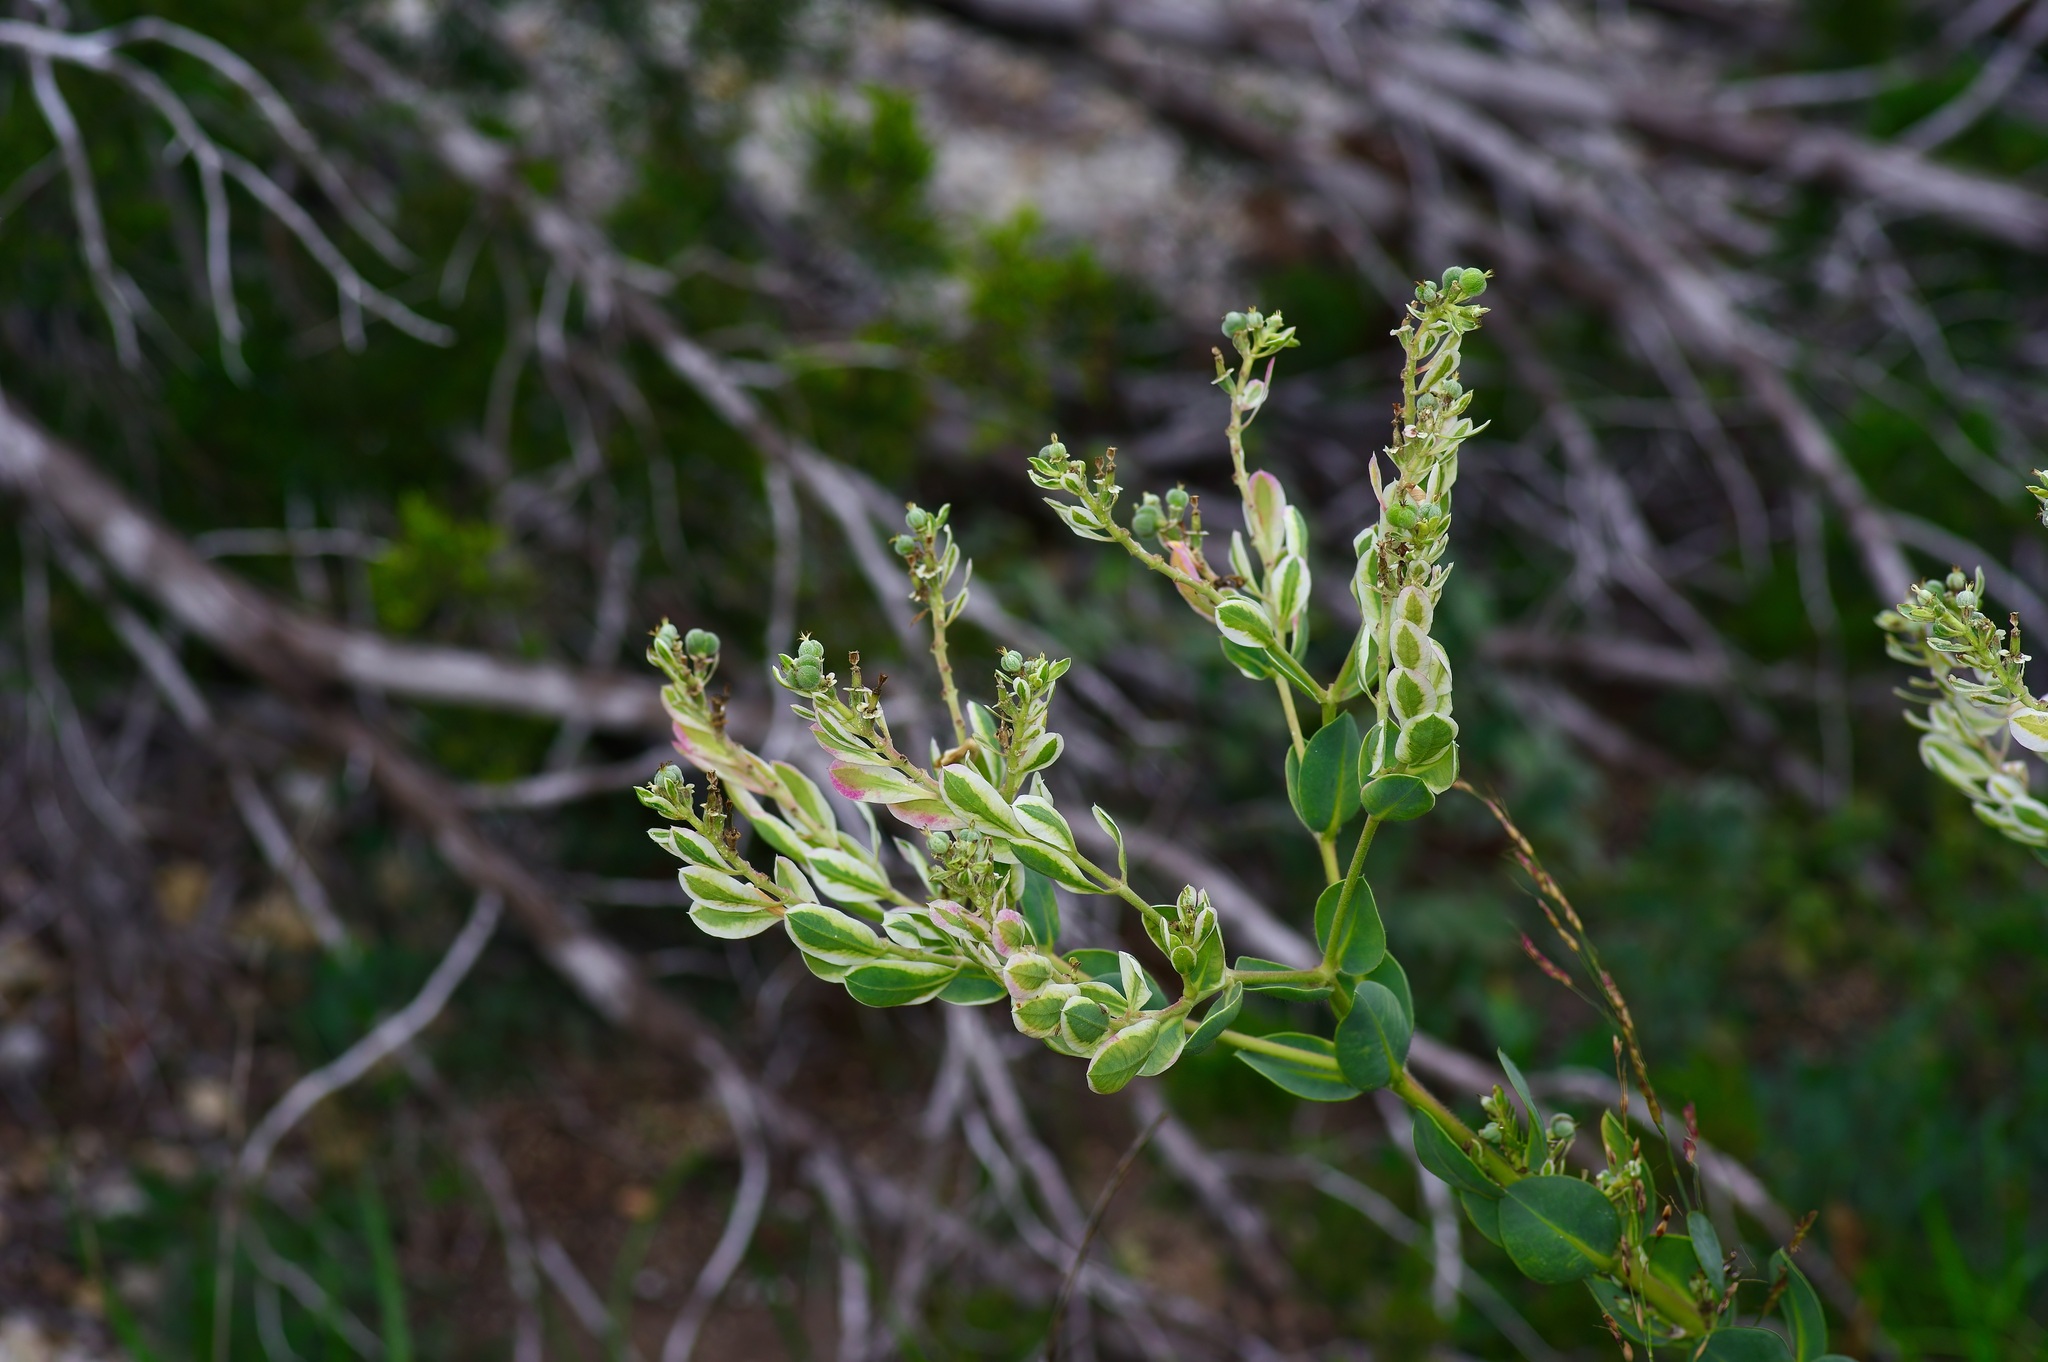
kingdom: Plantae
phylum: Tracheophyta
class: Magnoliopsida
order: Malpighiales
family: Euphorbiaceae
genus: Euphorbia
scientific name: Euphorbia marginata
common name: Ghostweed
